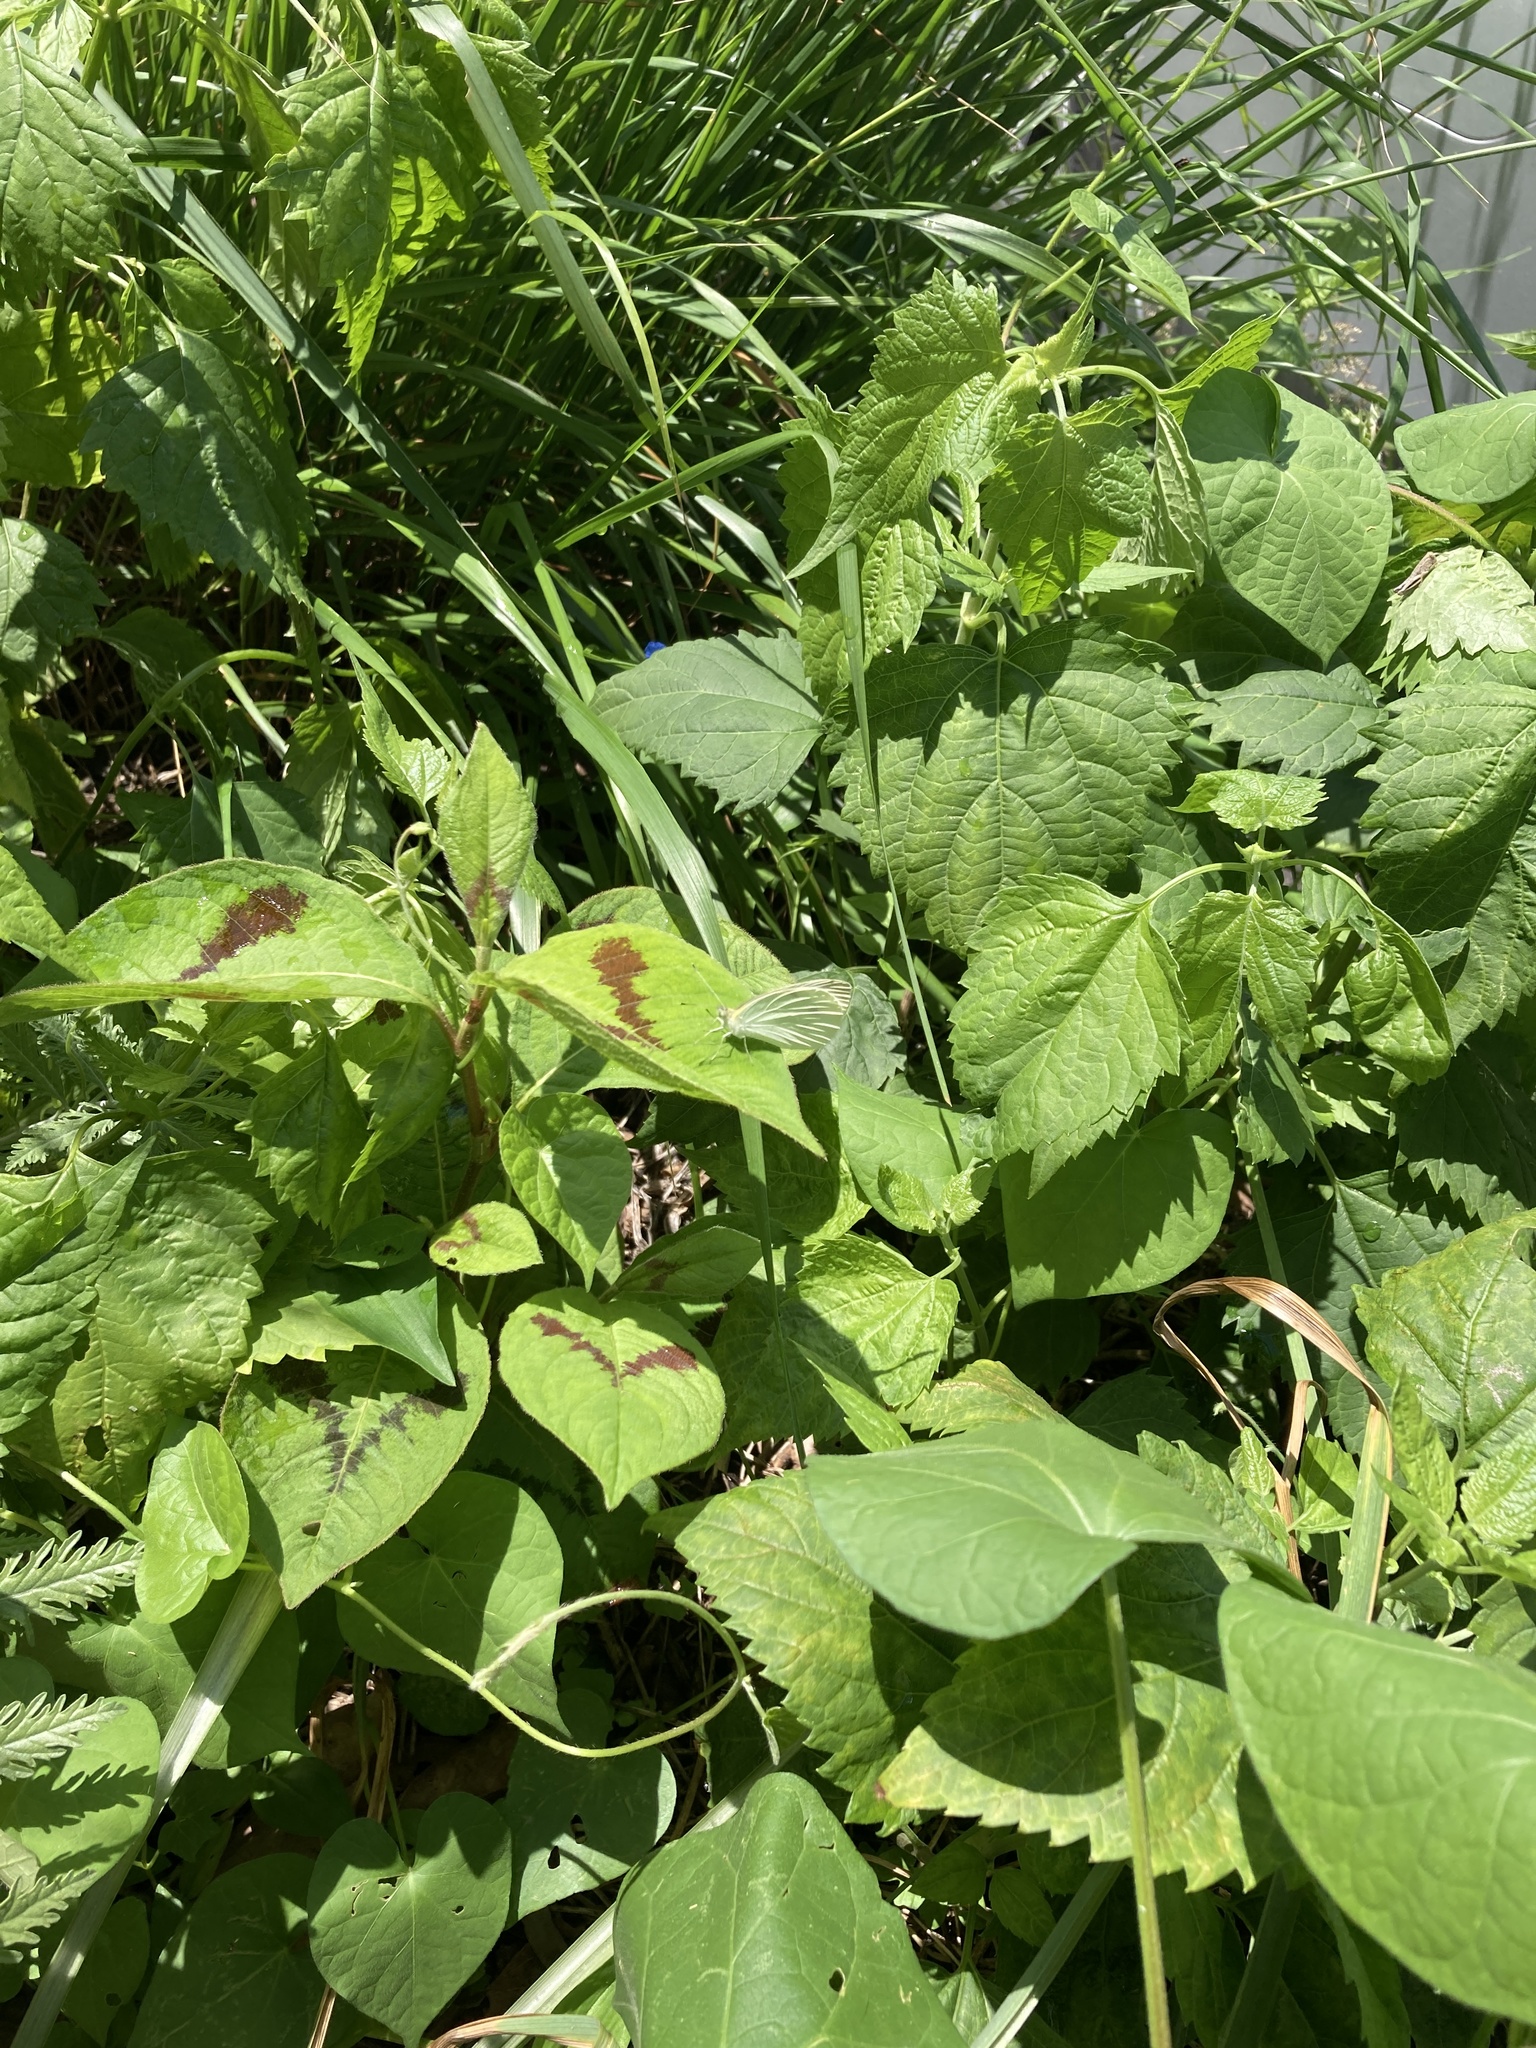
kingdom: Animalia
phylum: Arthropoda
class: Insecta
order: Lepidoptera
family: Pieridae
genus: Pieris
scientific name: Pieris rapae
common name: Small white
